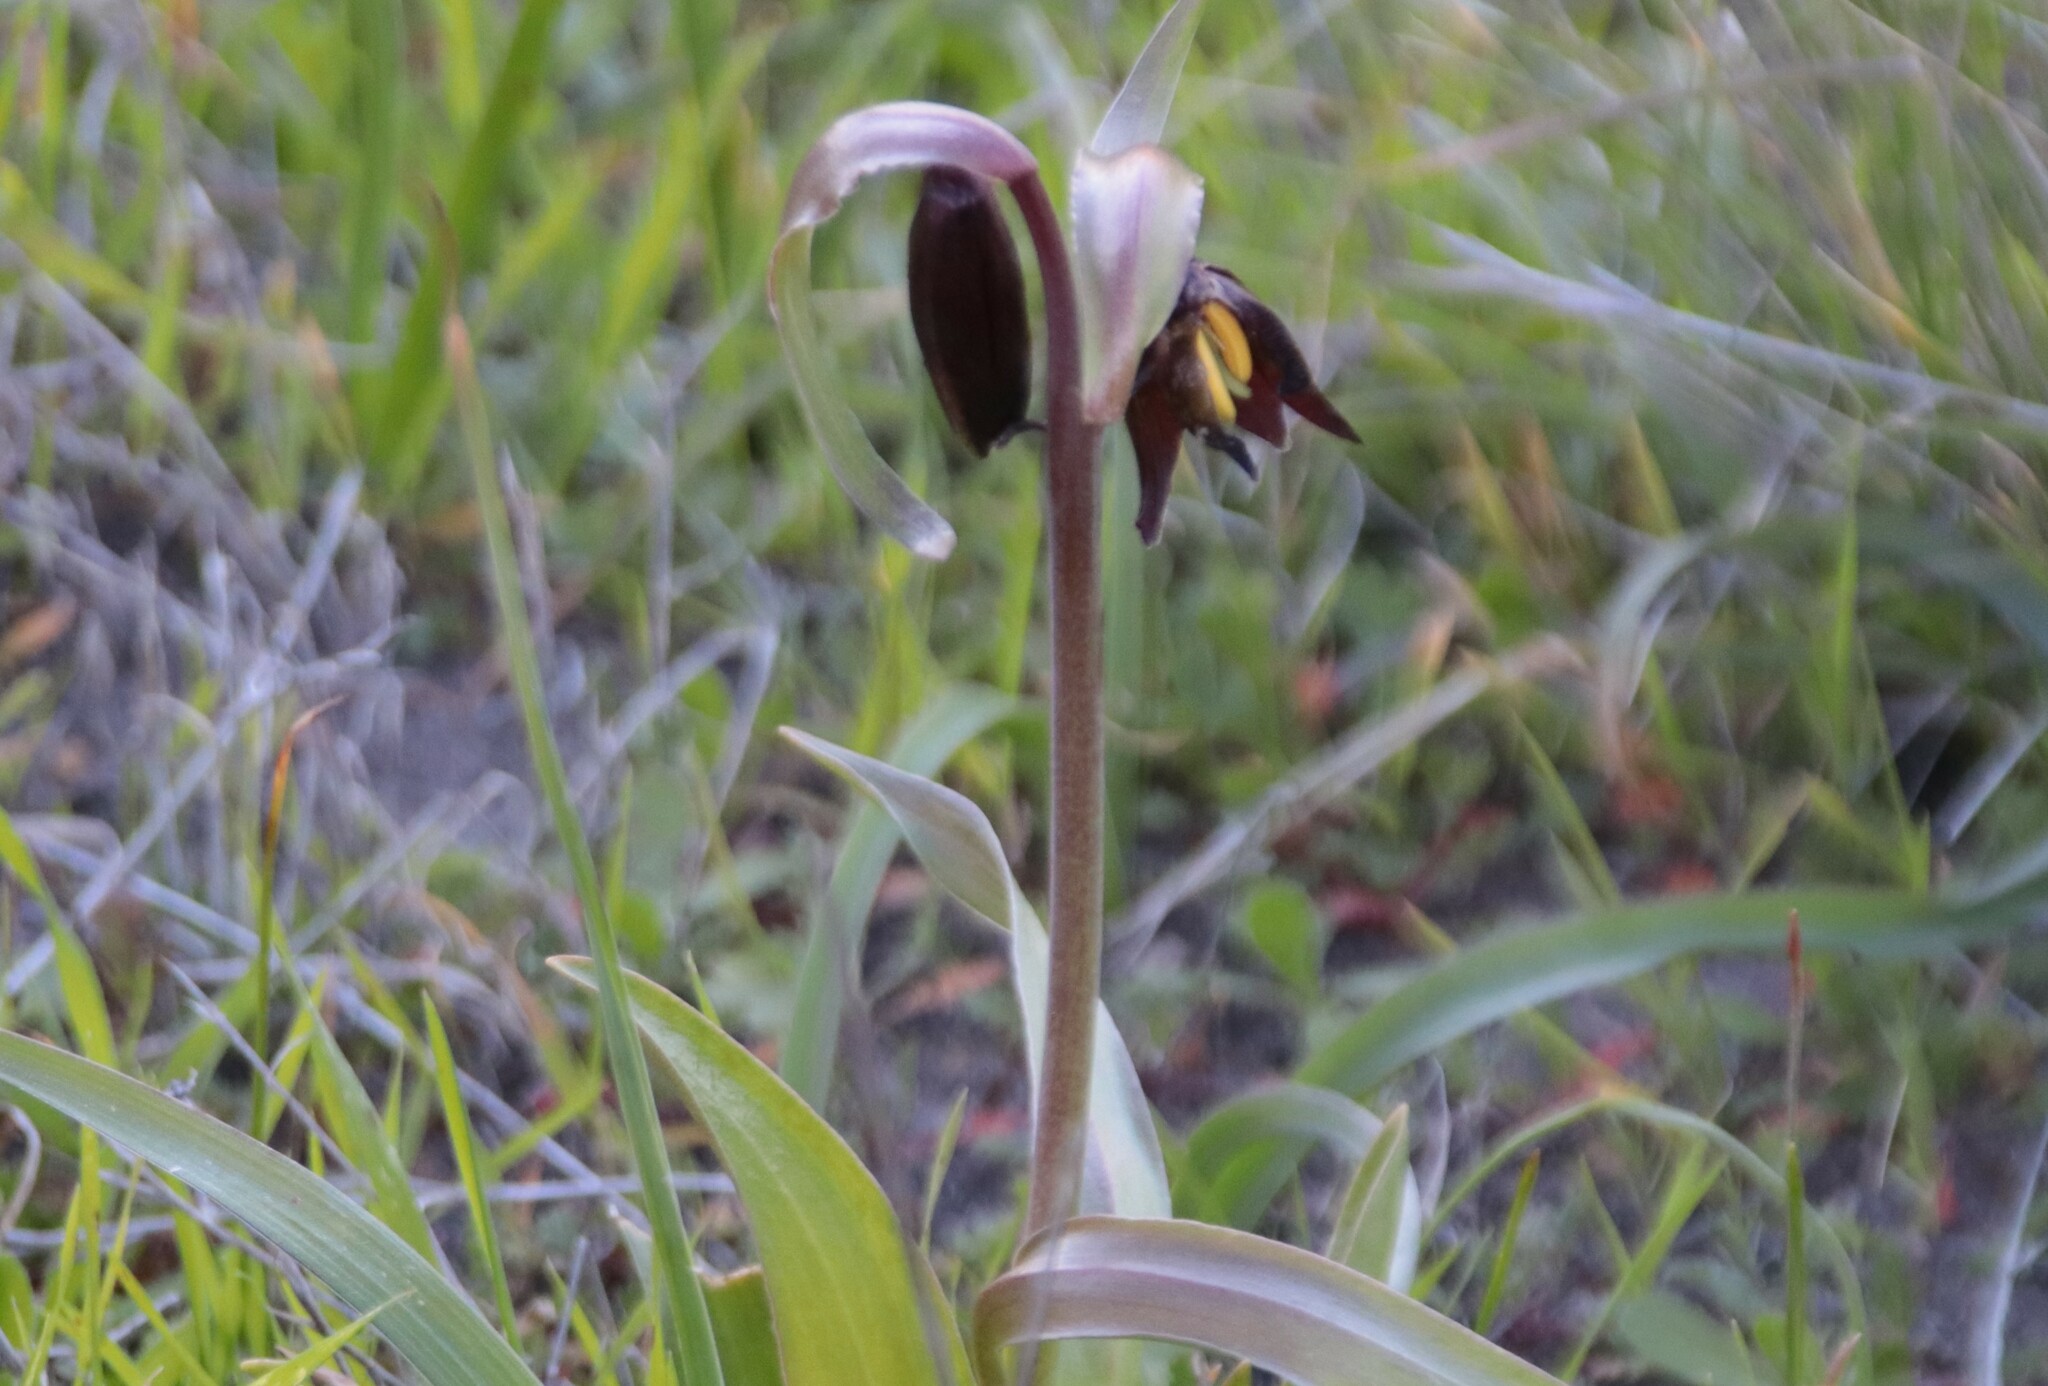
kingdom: Plantae
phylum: Tracheophyta
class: Liliopsida
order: Liliales
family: Liliaceae
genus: Fritillaria
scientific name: Fritillaria biflora
